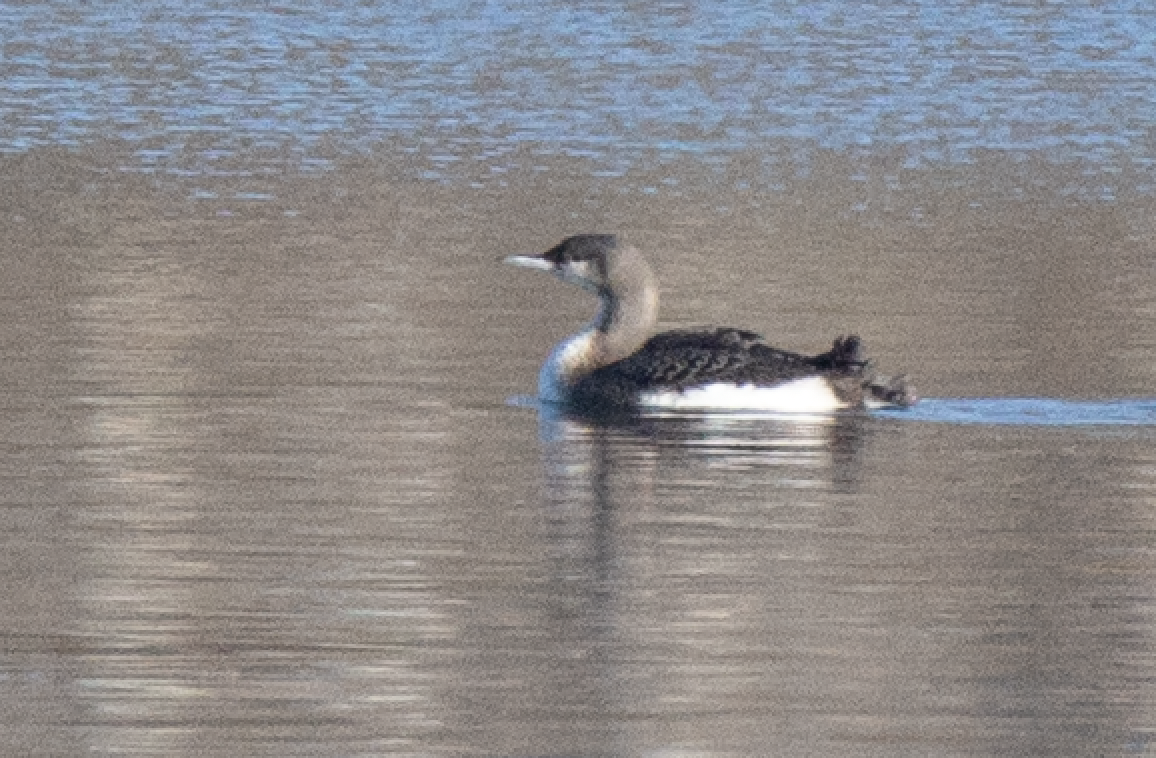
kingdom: Animalia
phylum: Chordata
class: Aves
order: Gaviiformes
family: Gaviidae
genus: Gavia
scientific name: Gavia arctica
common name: Black-throated loon
